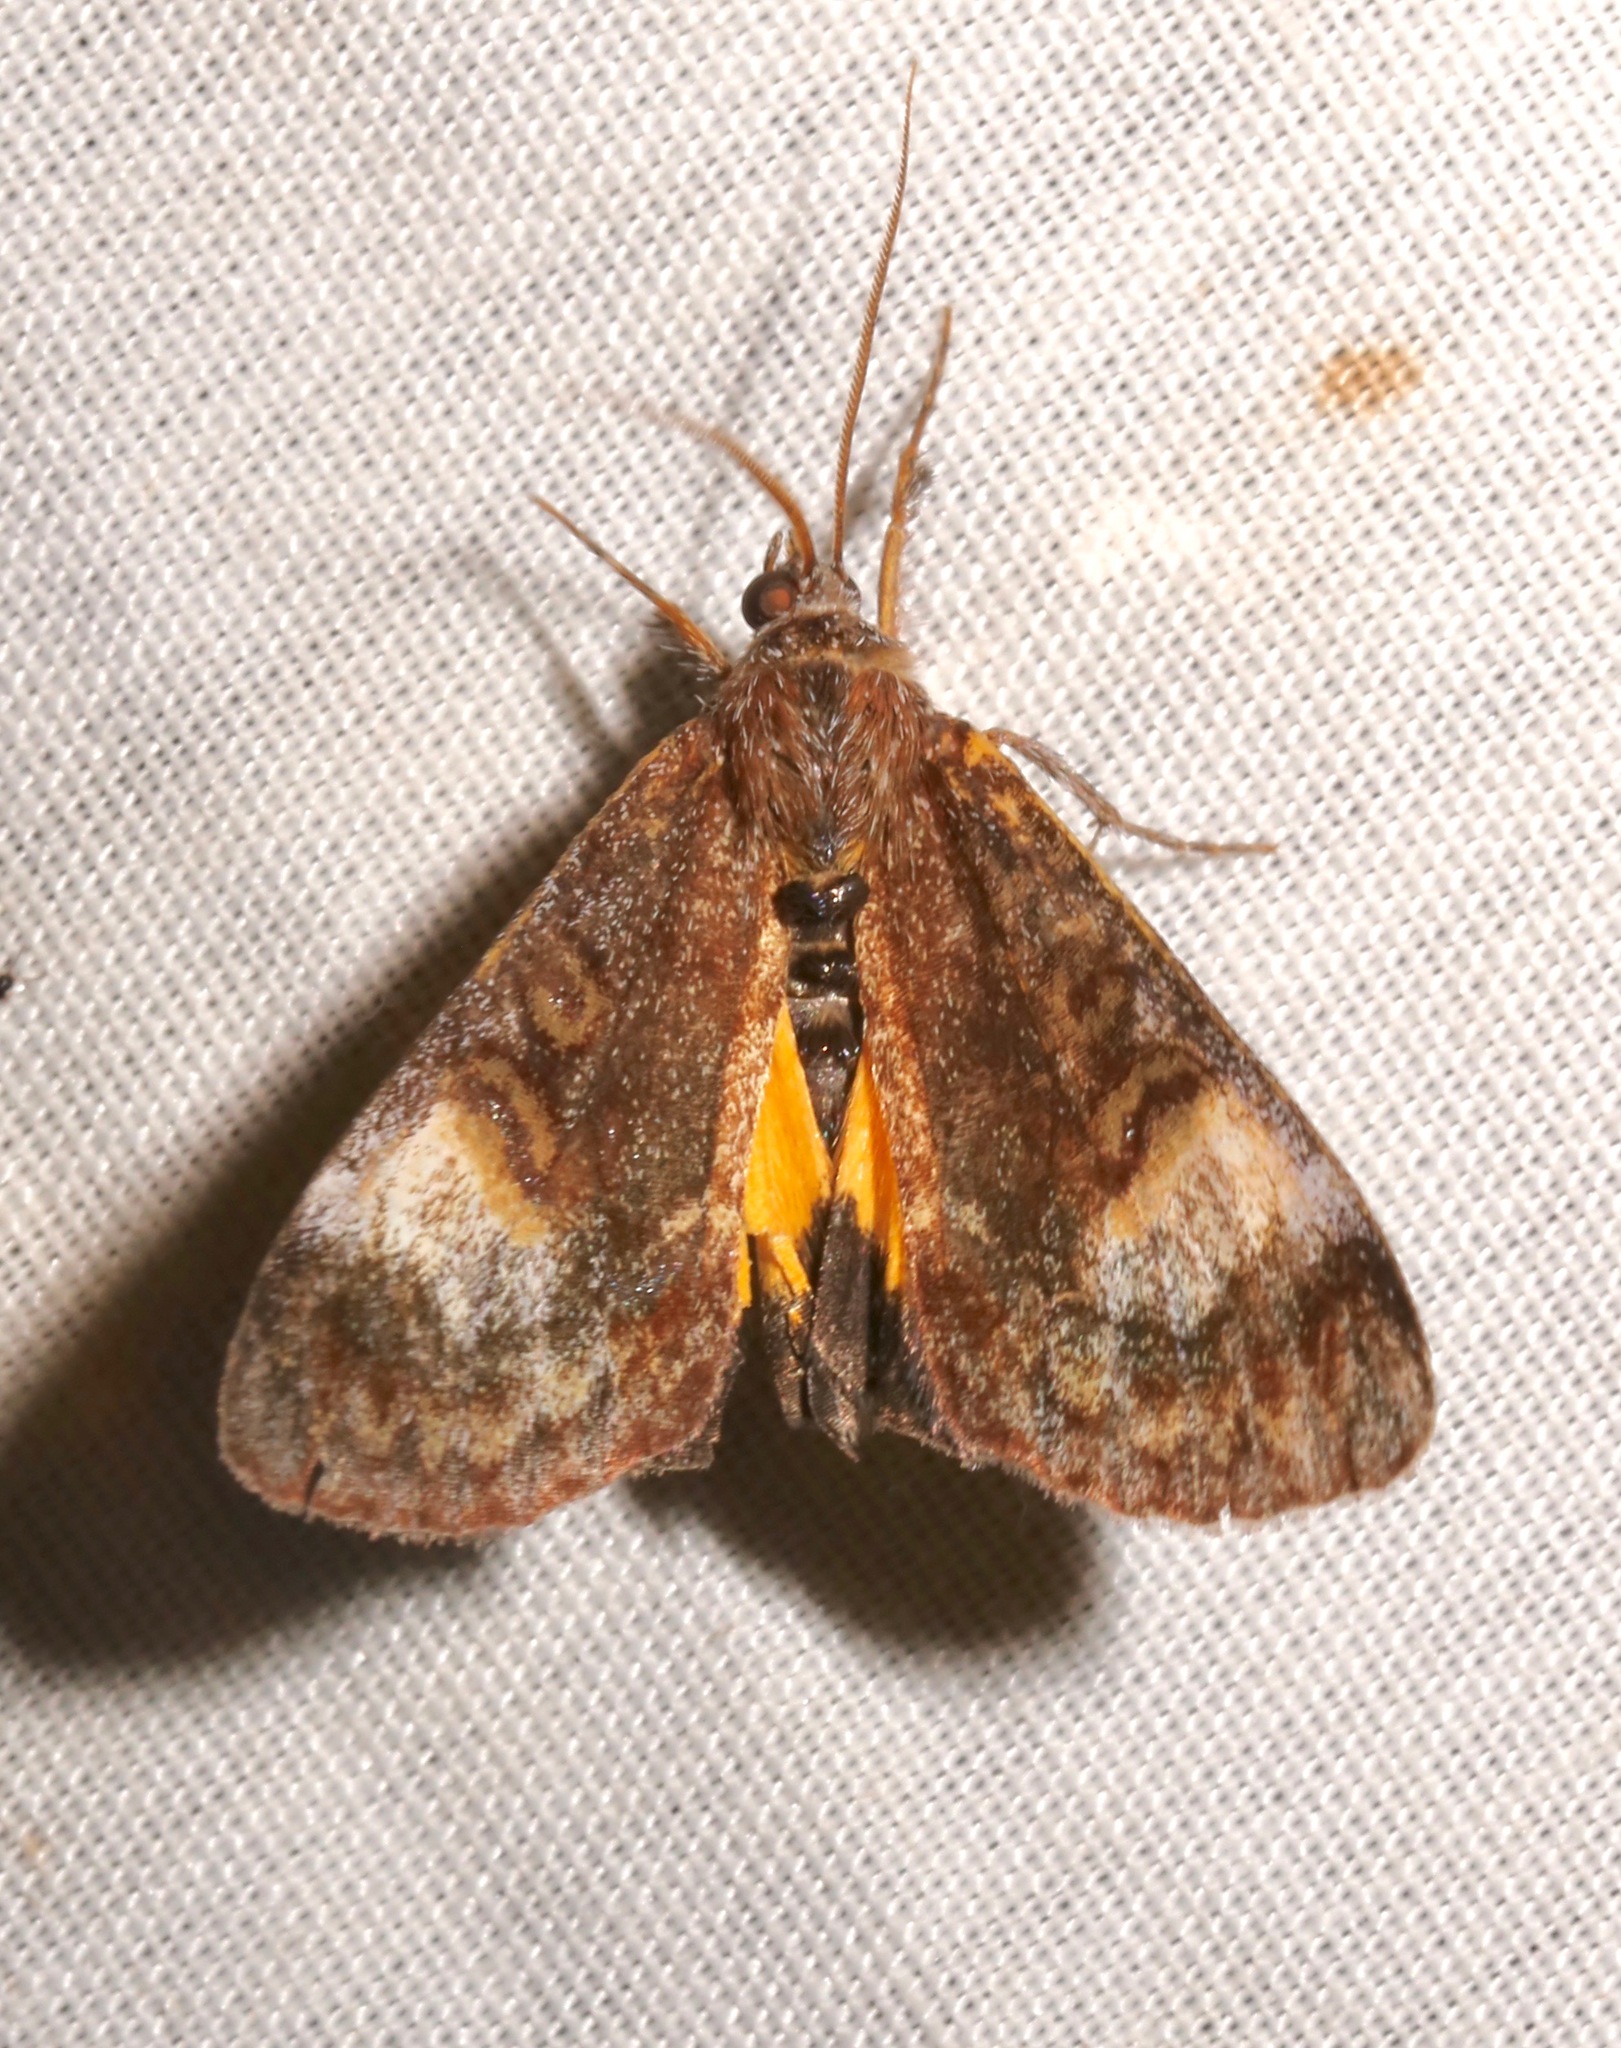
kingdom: Animalia
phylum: Arthropoda
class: Insecta
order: Lepidoptera
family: Noctuidae
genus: Gerra
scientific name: Gerra sevorsa
